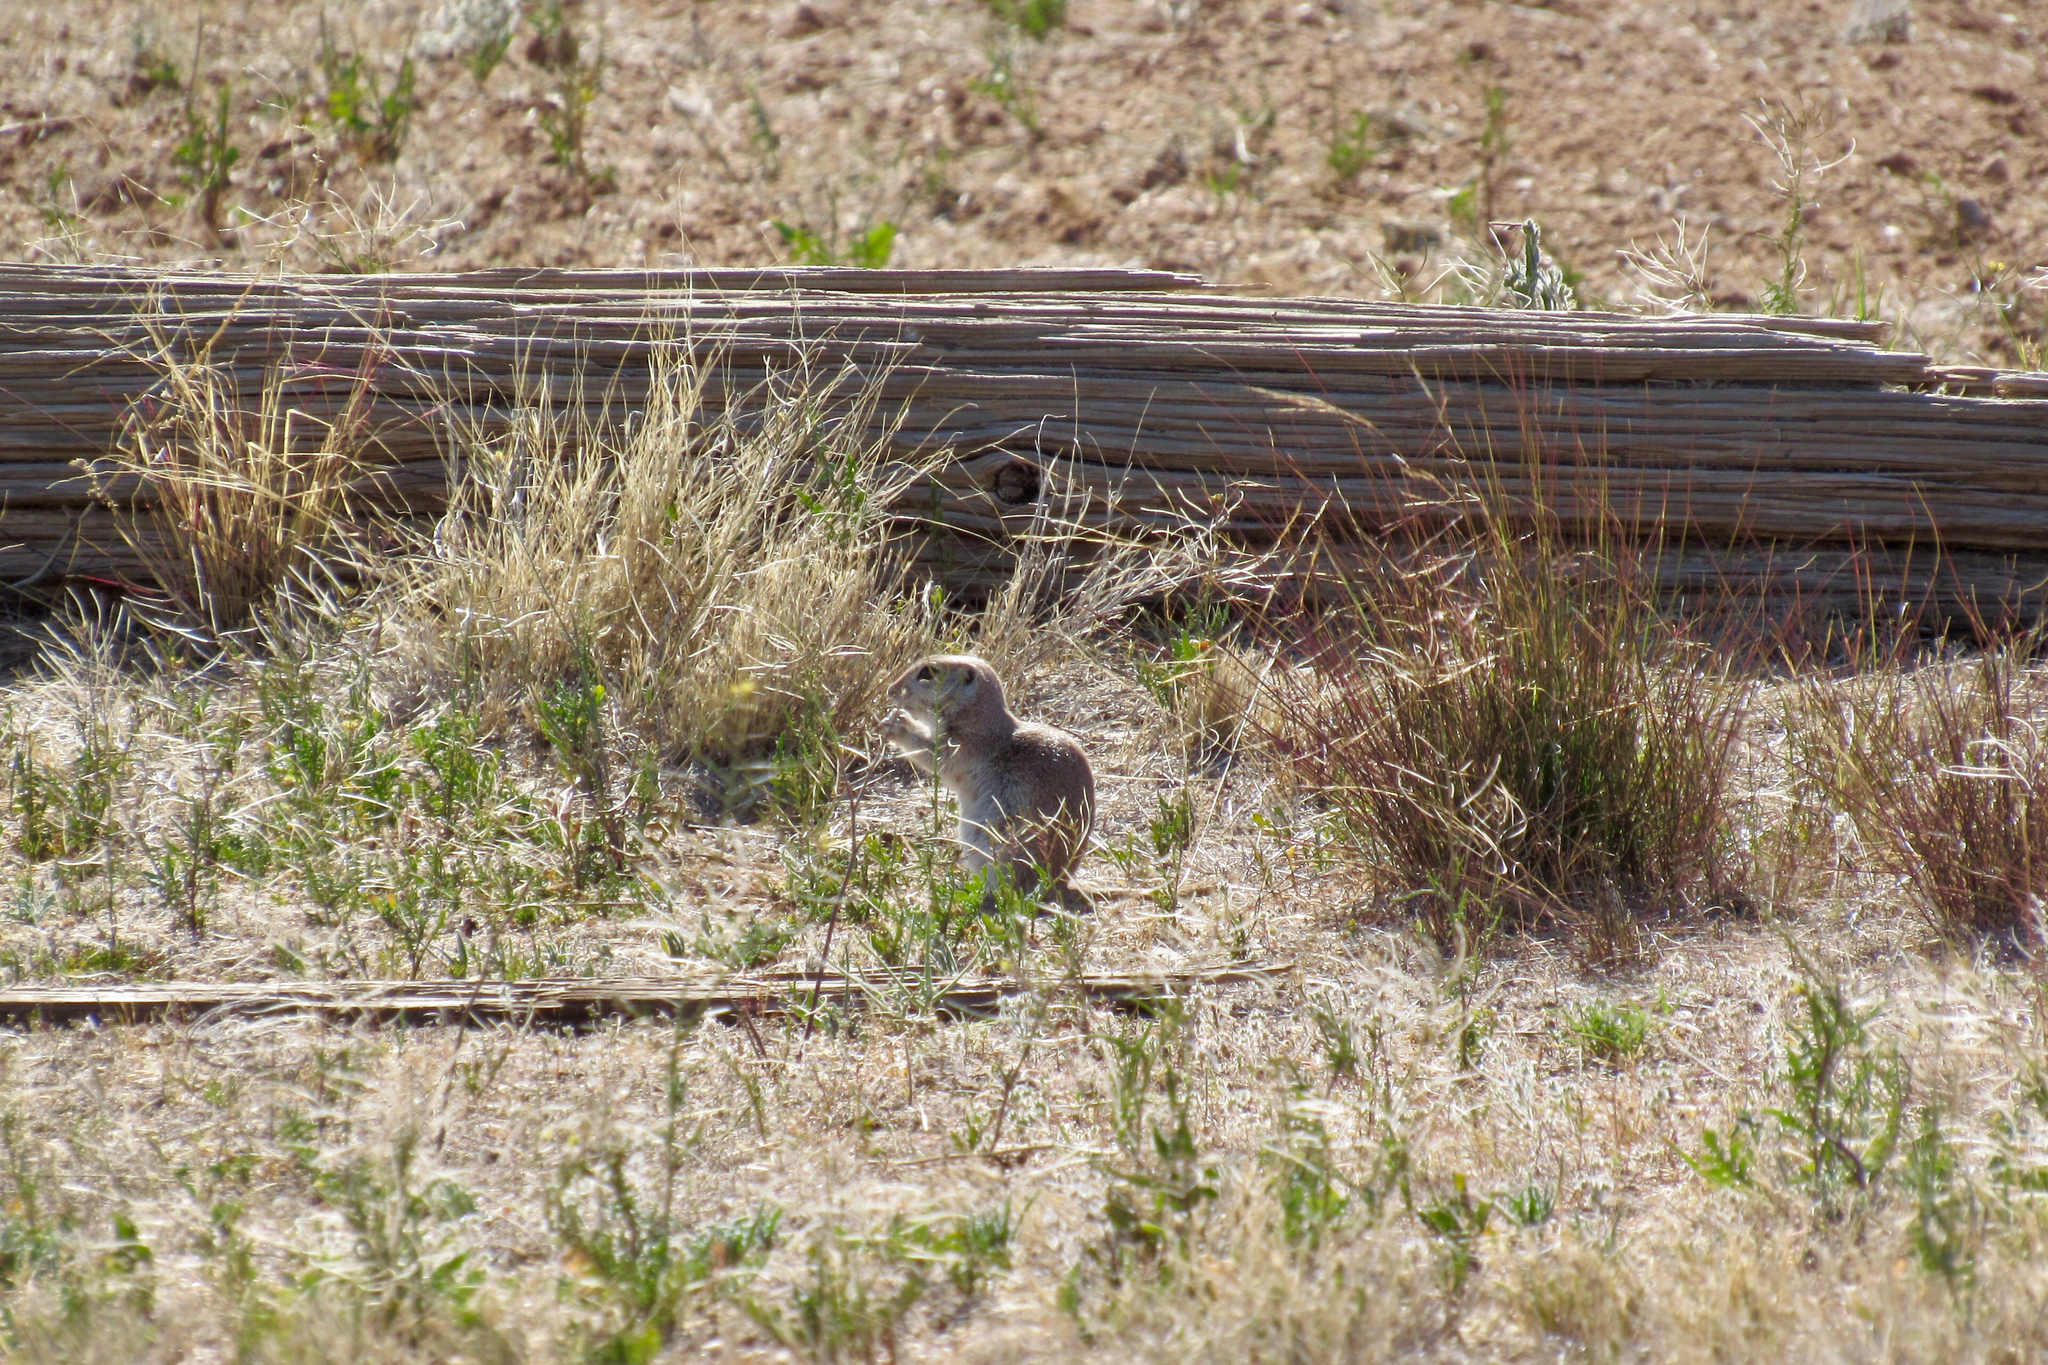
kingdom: Animalia
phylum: Chordata
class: Mammalia
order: Rodentia
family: Sciuridae
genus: Xerospermophilus
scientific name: Xerospermophilus tereticaudus
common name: Round-tailed ground squirrel
